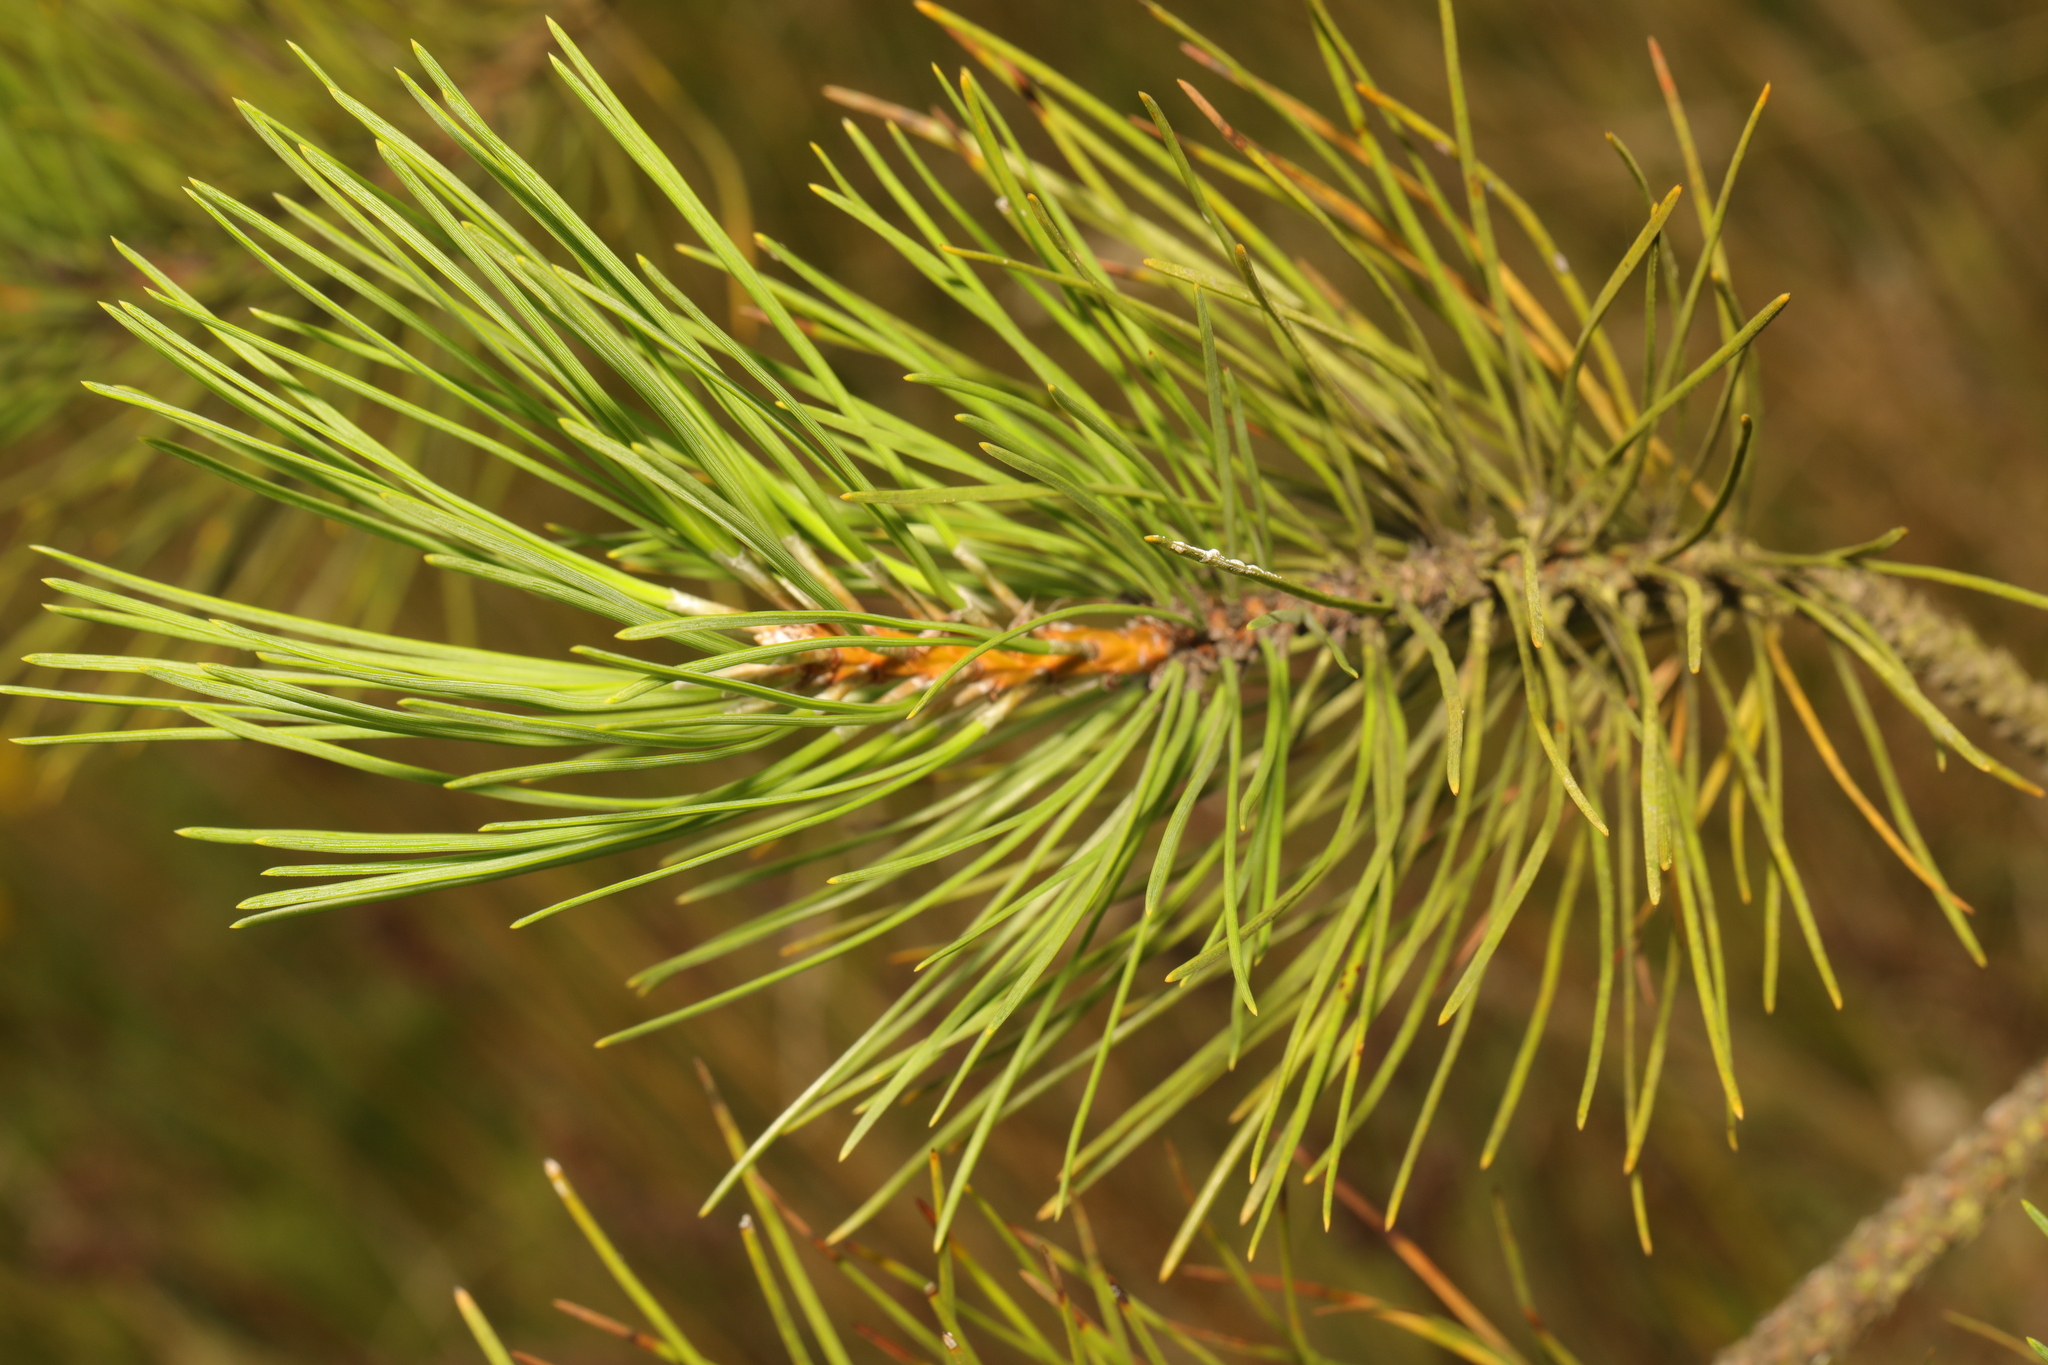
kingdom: Plantae
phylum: Tracheophyta
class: Pinopsida
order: Pinales
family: Pinaceae
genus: Pinus
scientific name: Pinus sylvestris
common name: Scots pine
